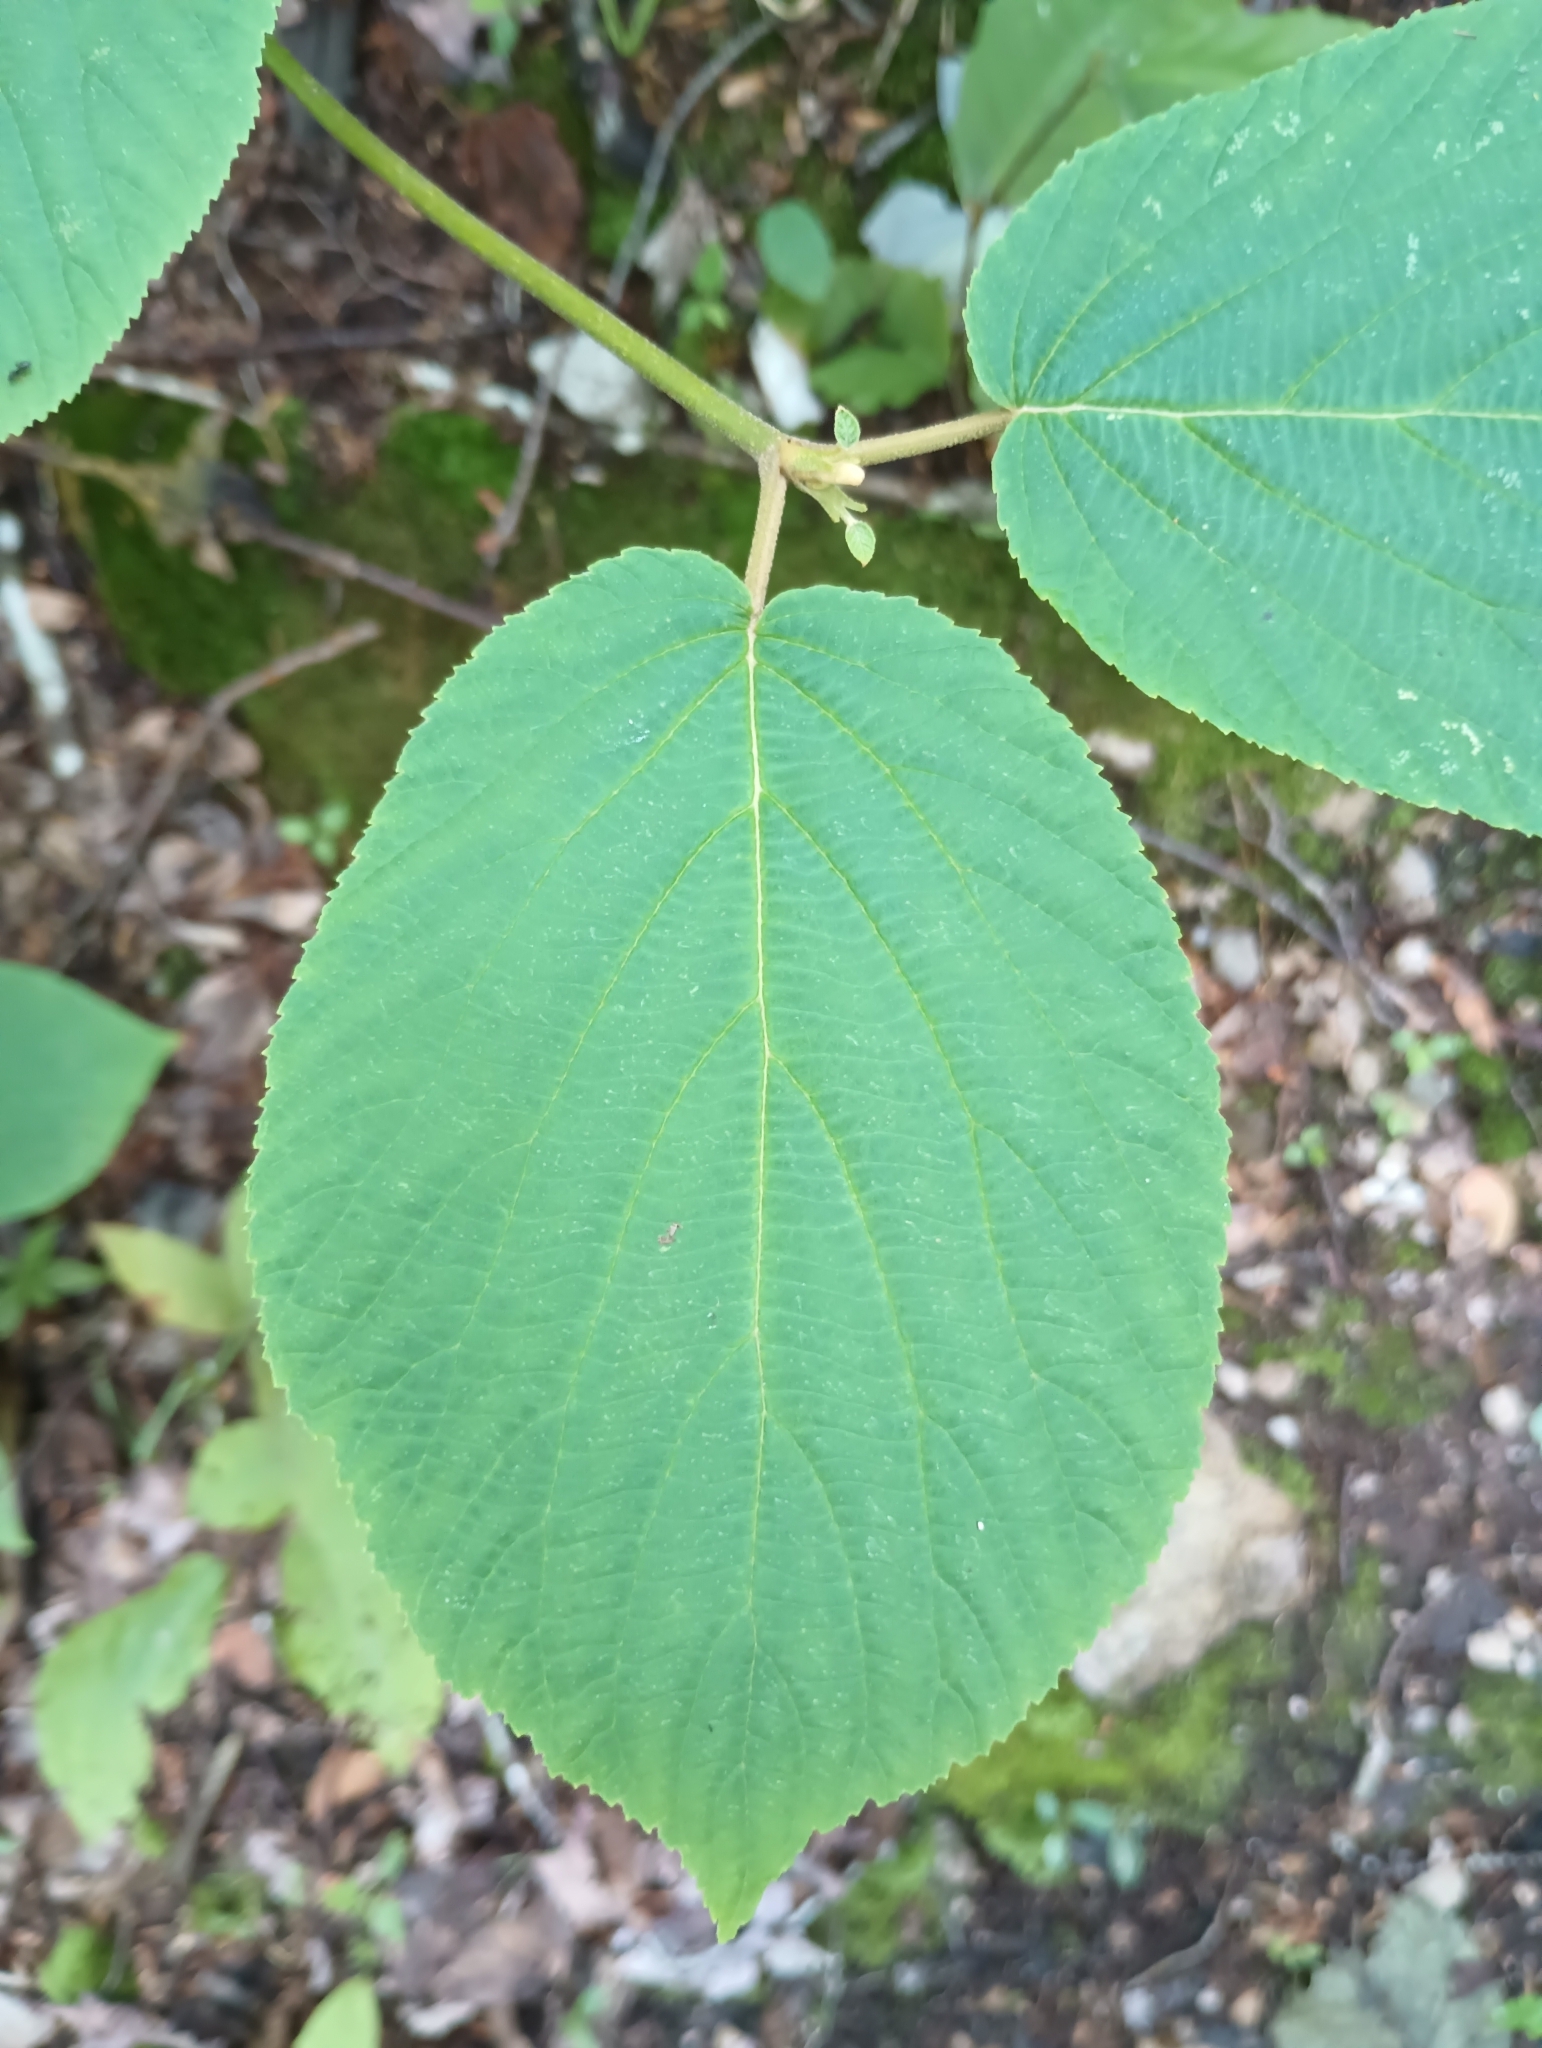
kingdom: Plantae
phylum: Tracheophyta
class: Magnoliopsida
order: Dipsacales
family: Viburnaceae
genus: Viburnum
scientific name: Viburnum lantanoides
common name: Hobblebush
